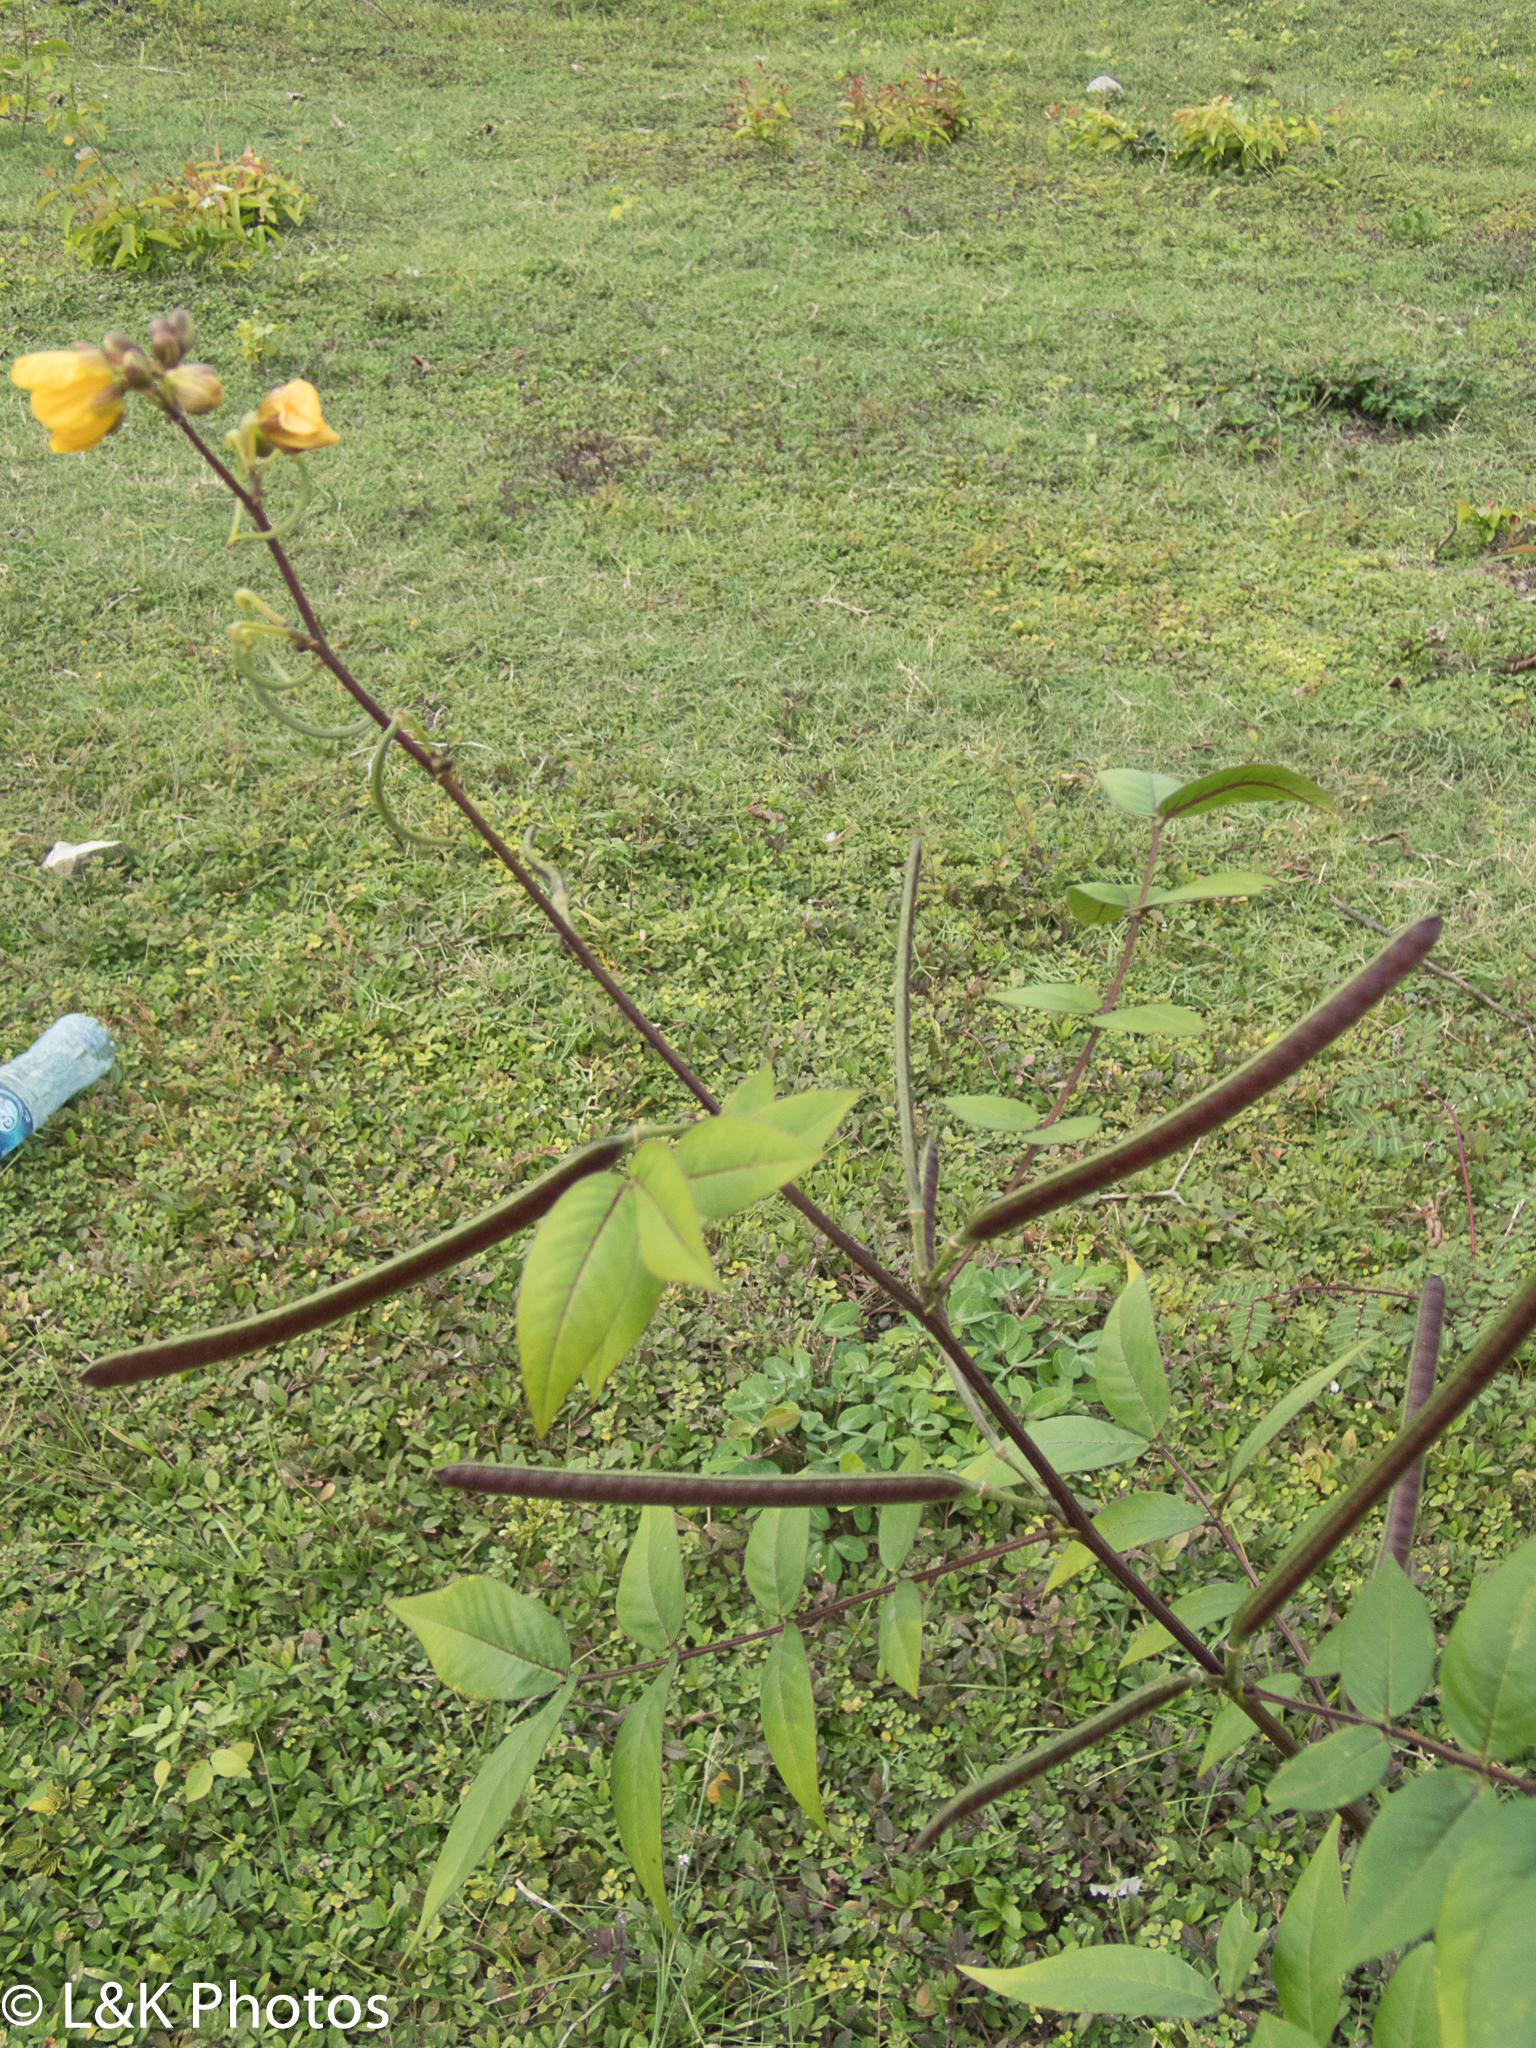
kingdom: Plantae
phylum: Tracheophyta
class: Magnoliopsida
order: Fabales
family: Fabaceae
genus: Senna
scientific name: Senna occidentalis
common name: Septicweed
